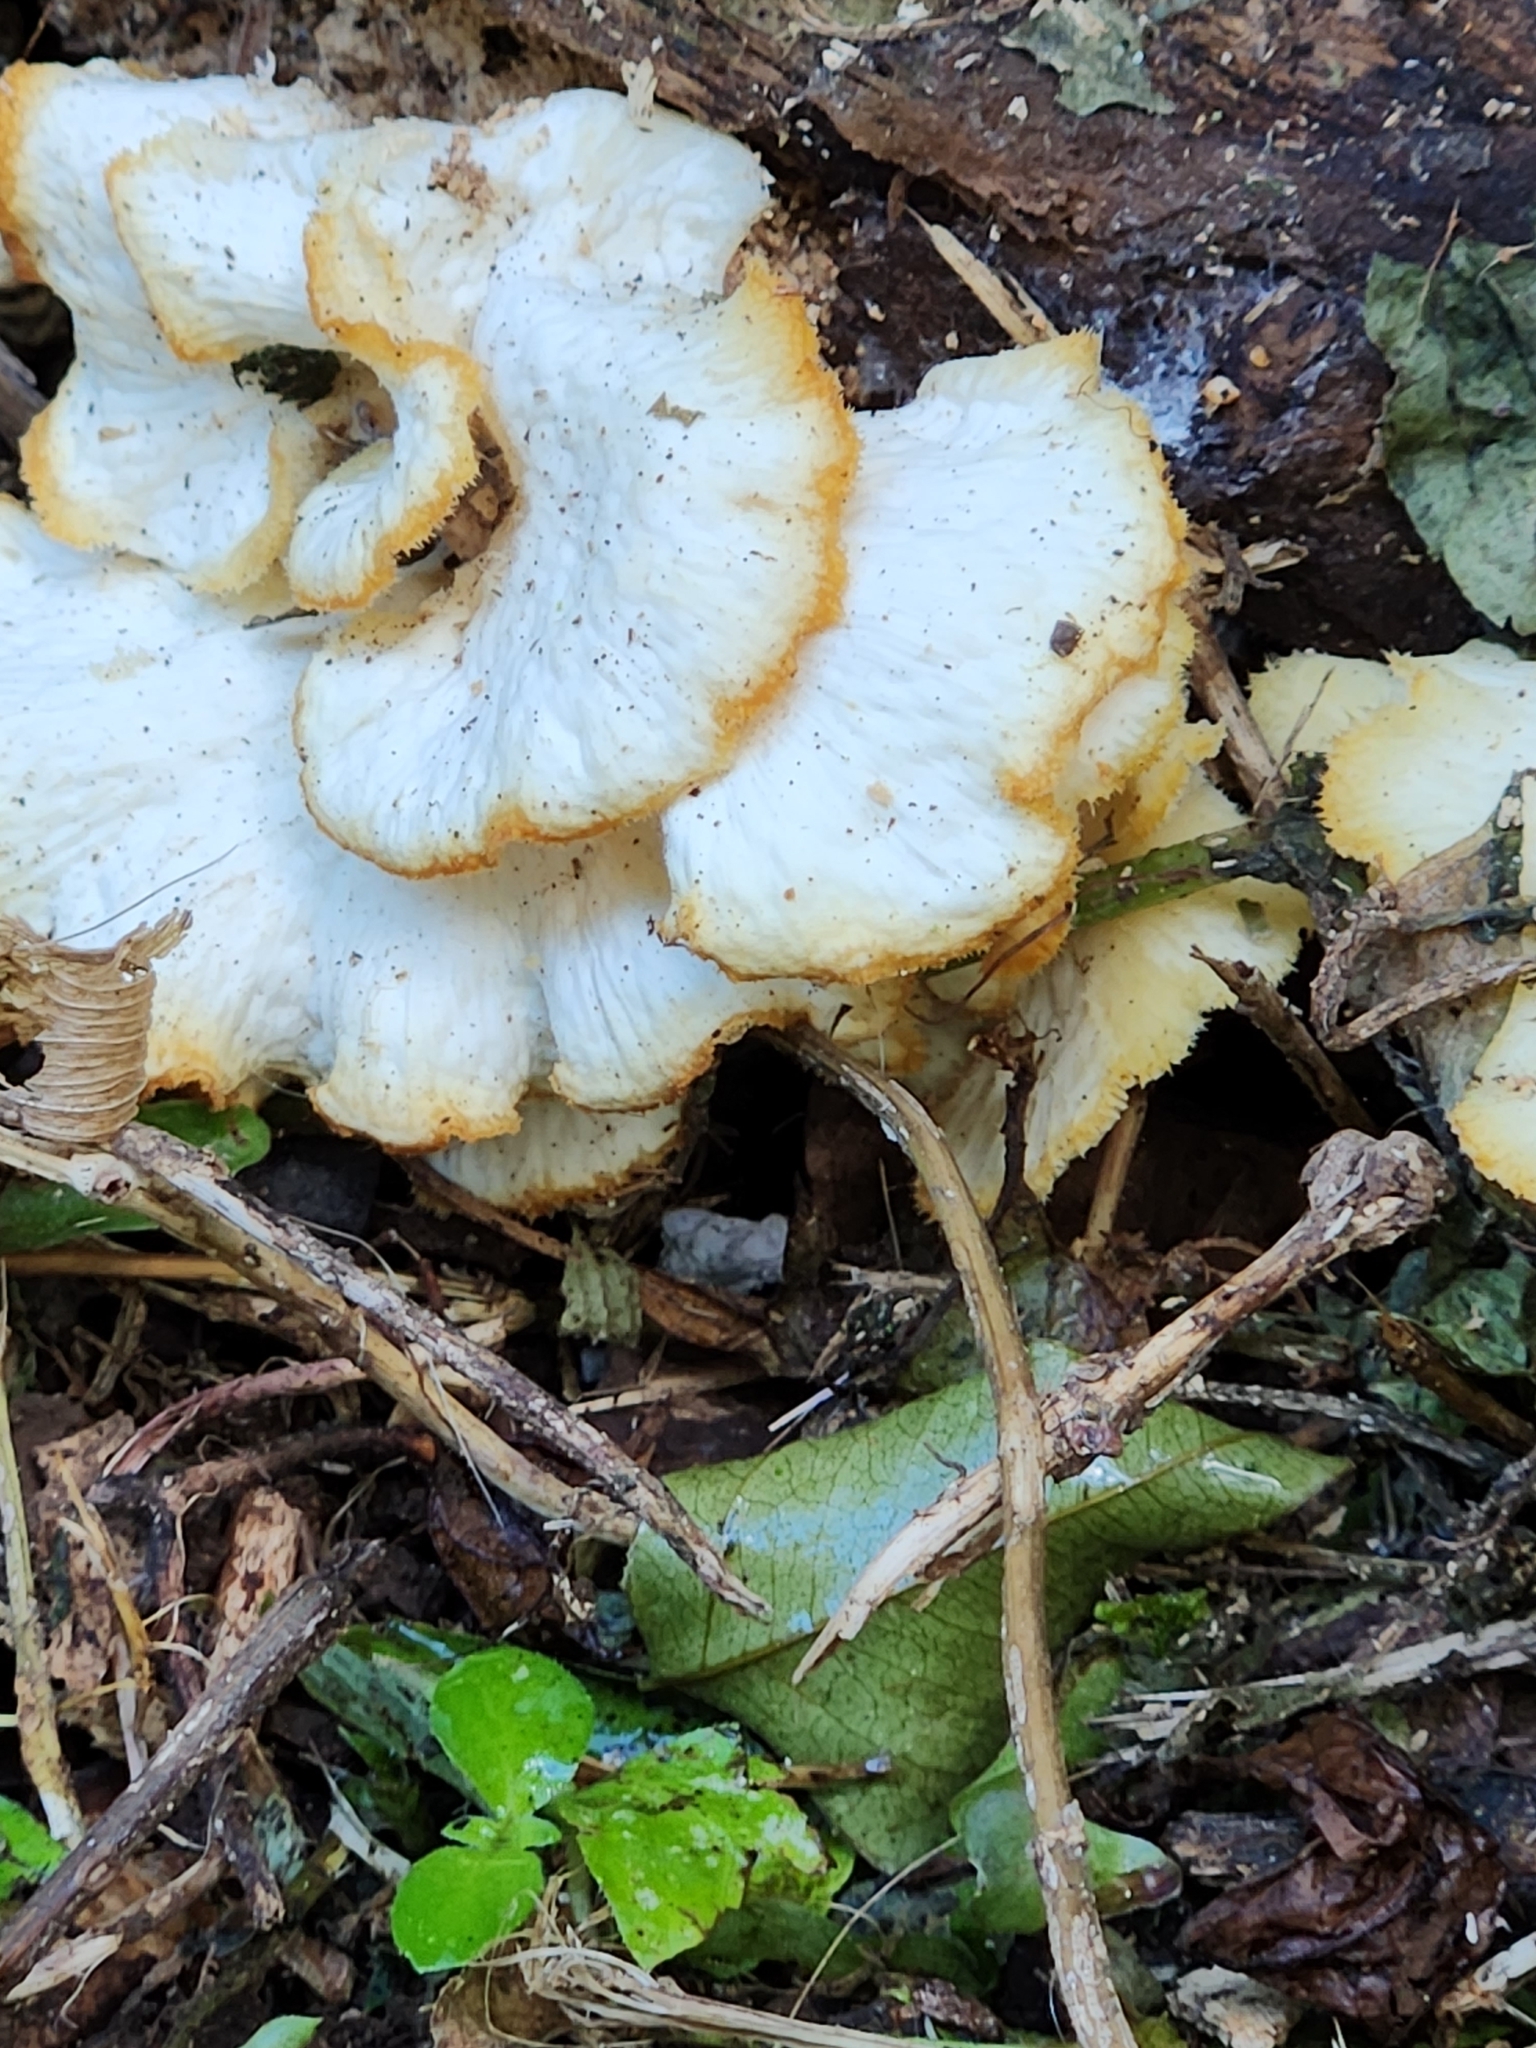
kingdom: Fungi
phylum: Basidiomycota
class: Agaricomycetes
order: Polyporales
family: Polyporaceae
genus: Favolus
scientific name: Favolus tenuiculus
